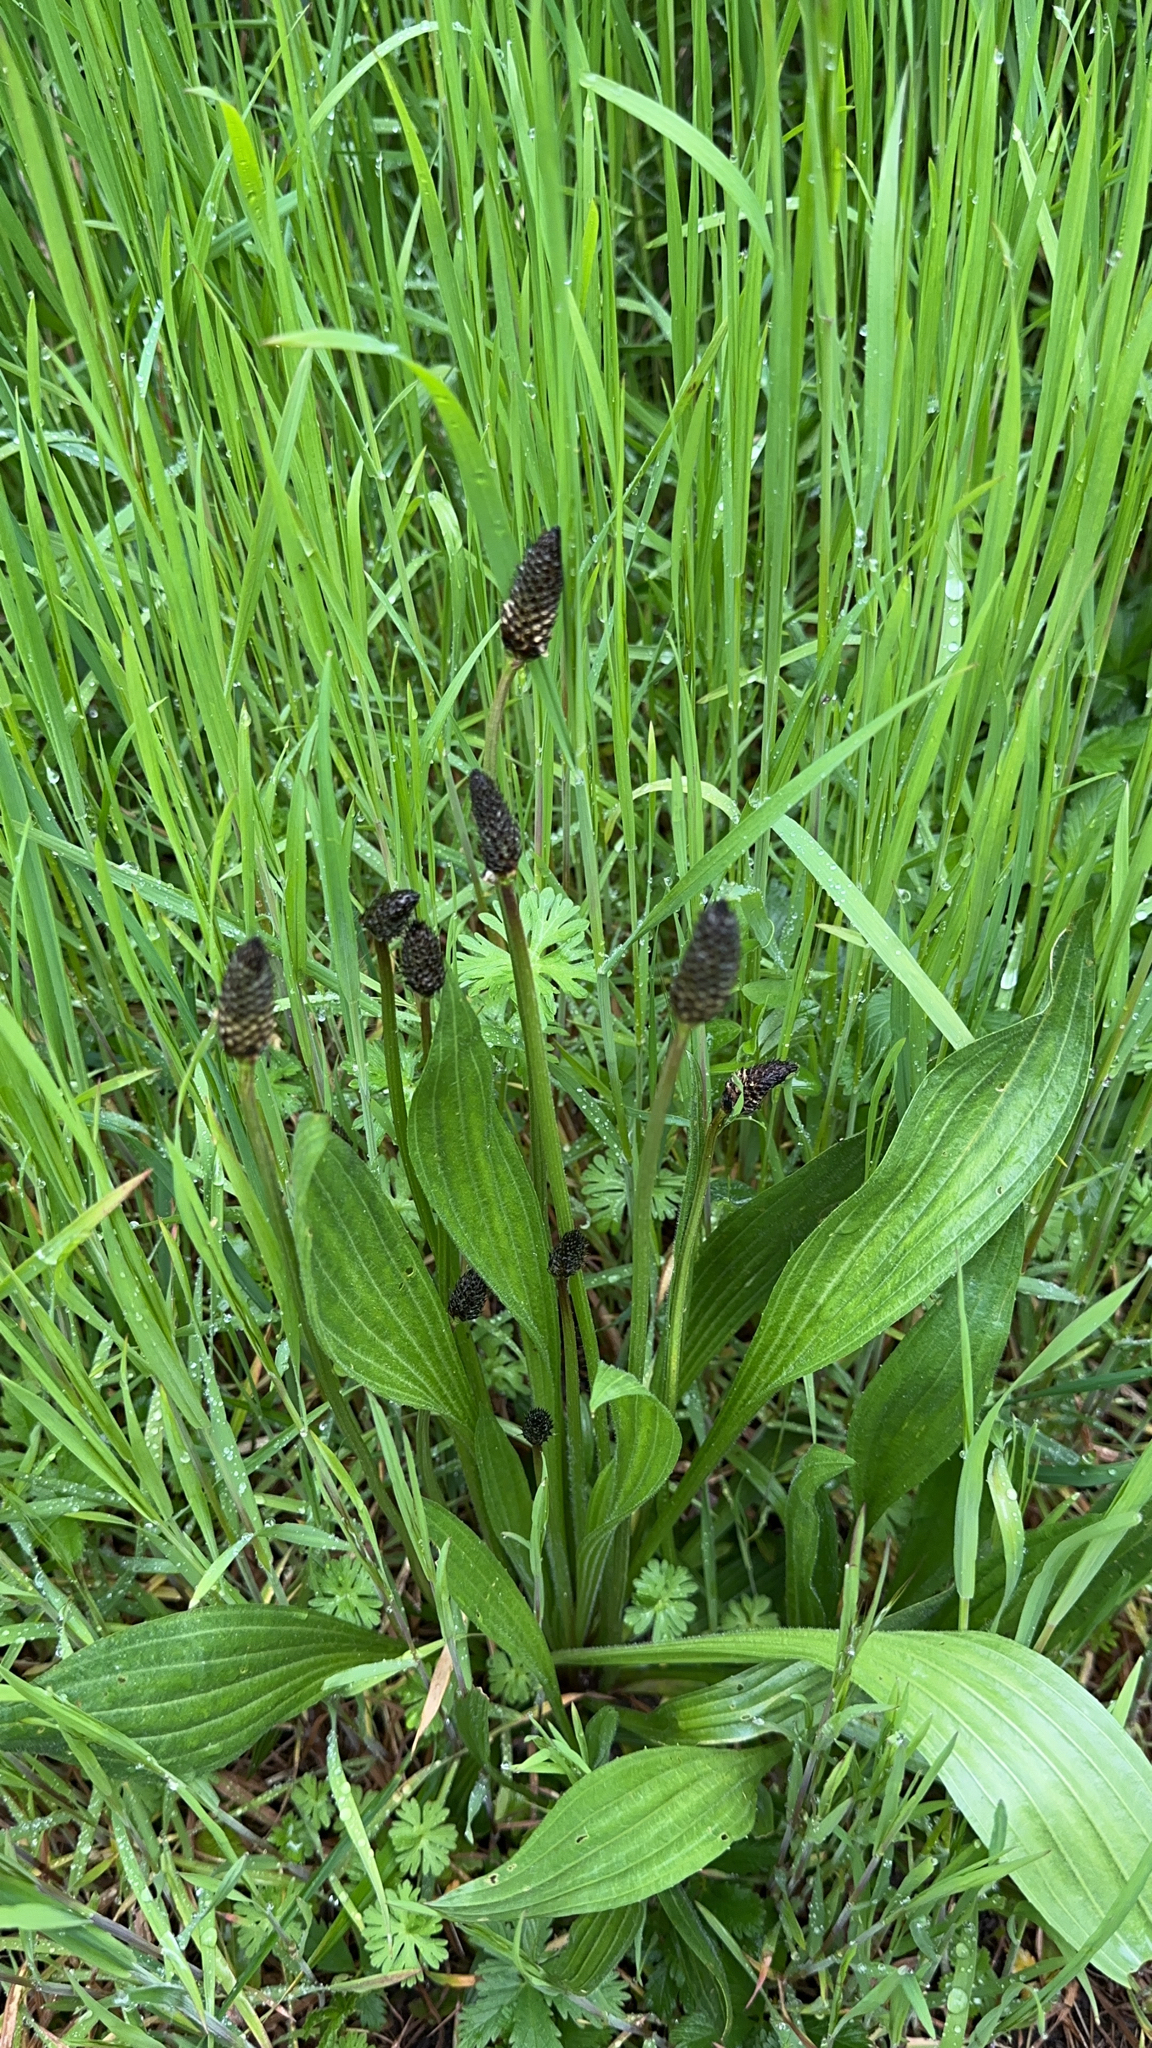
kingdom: Plantae
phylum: Tracheophyta
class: Magnoliopsida
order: Lamiales
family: Plantaginaceae
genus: Plantago
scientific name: Plantago lanceolata
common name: Ribwort plantain
